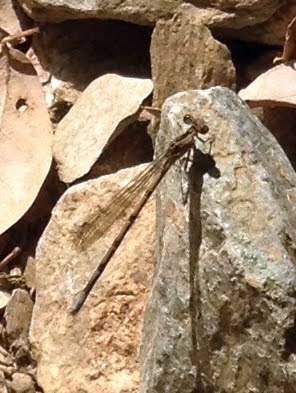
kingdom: Animalia
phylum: Arthropoda
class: Insecta
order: Odonata
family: Coenagrionidae
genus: Argia
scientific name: Argia
